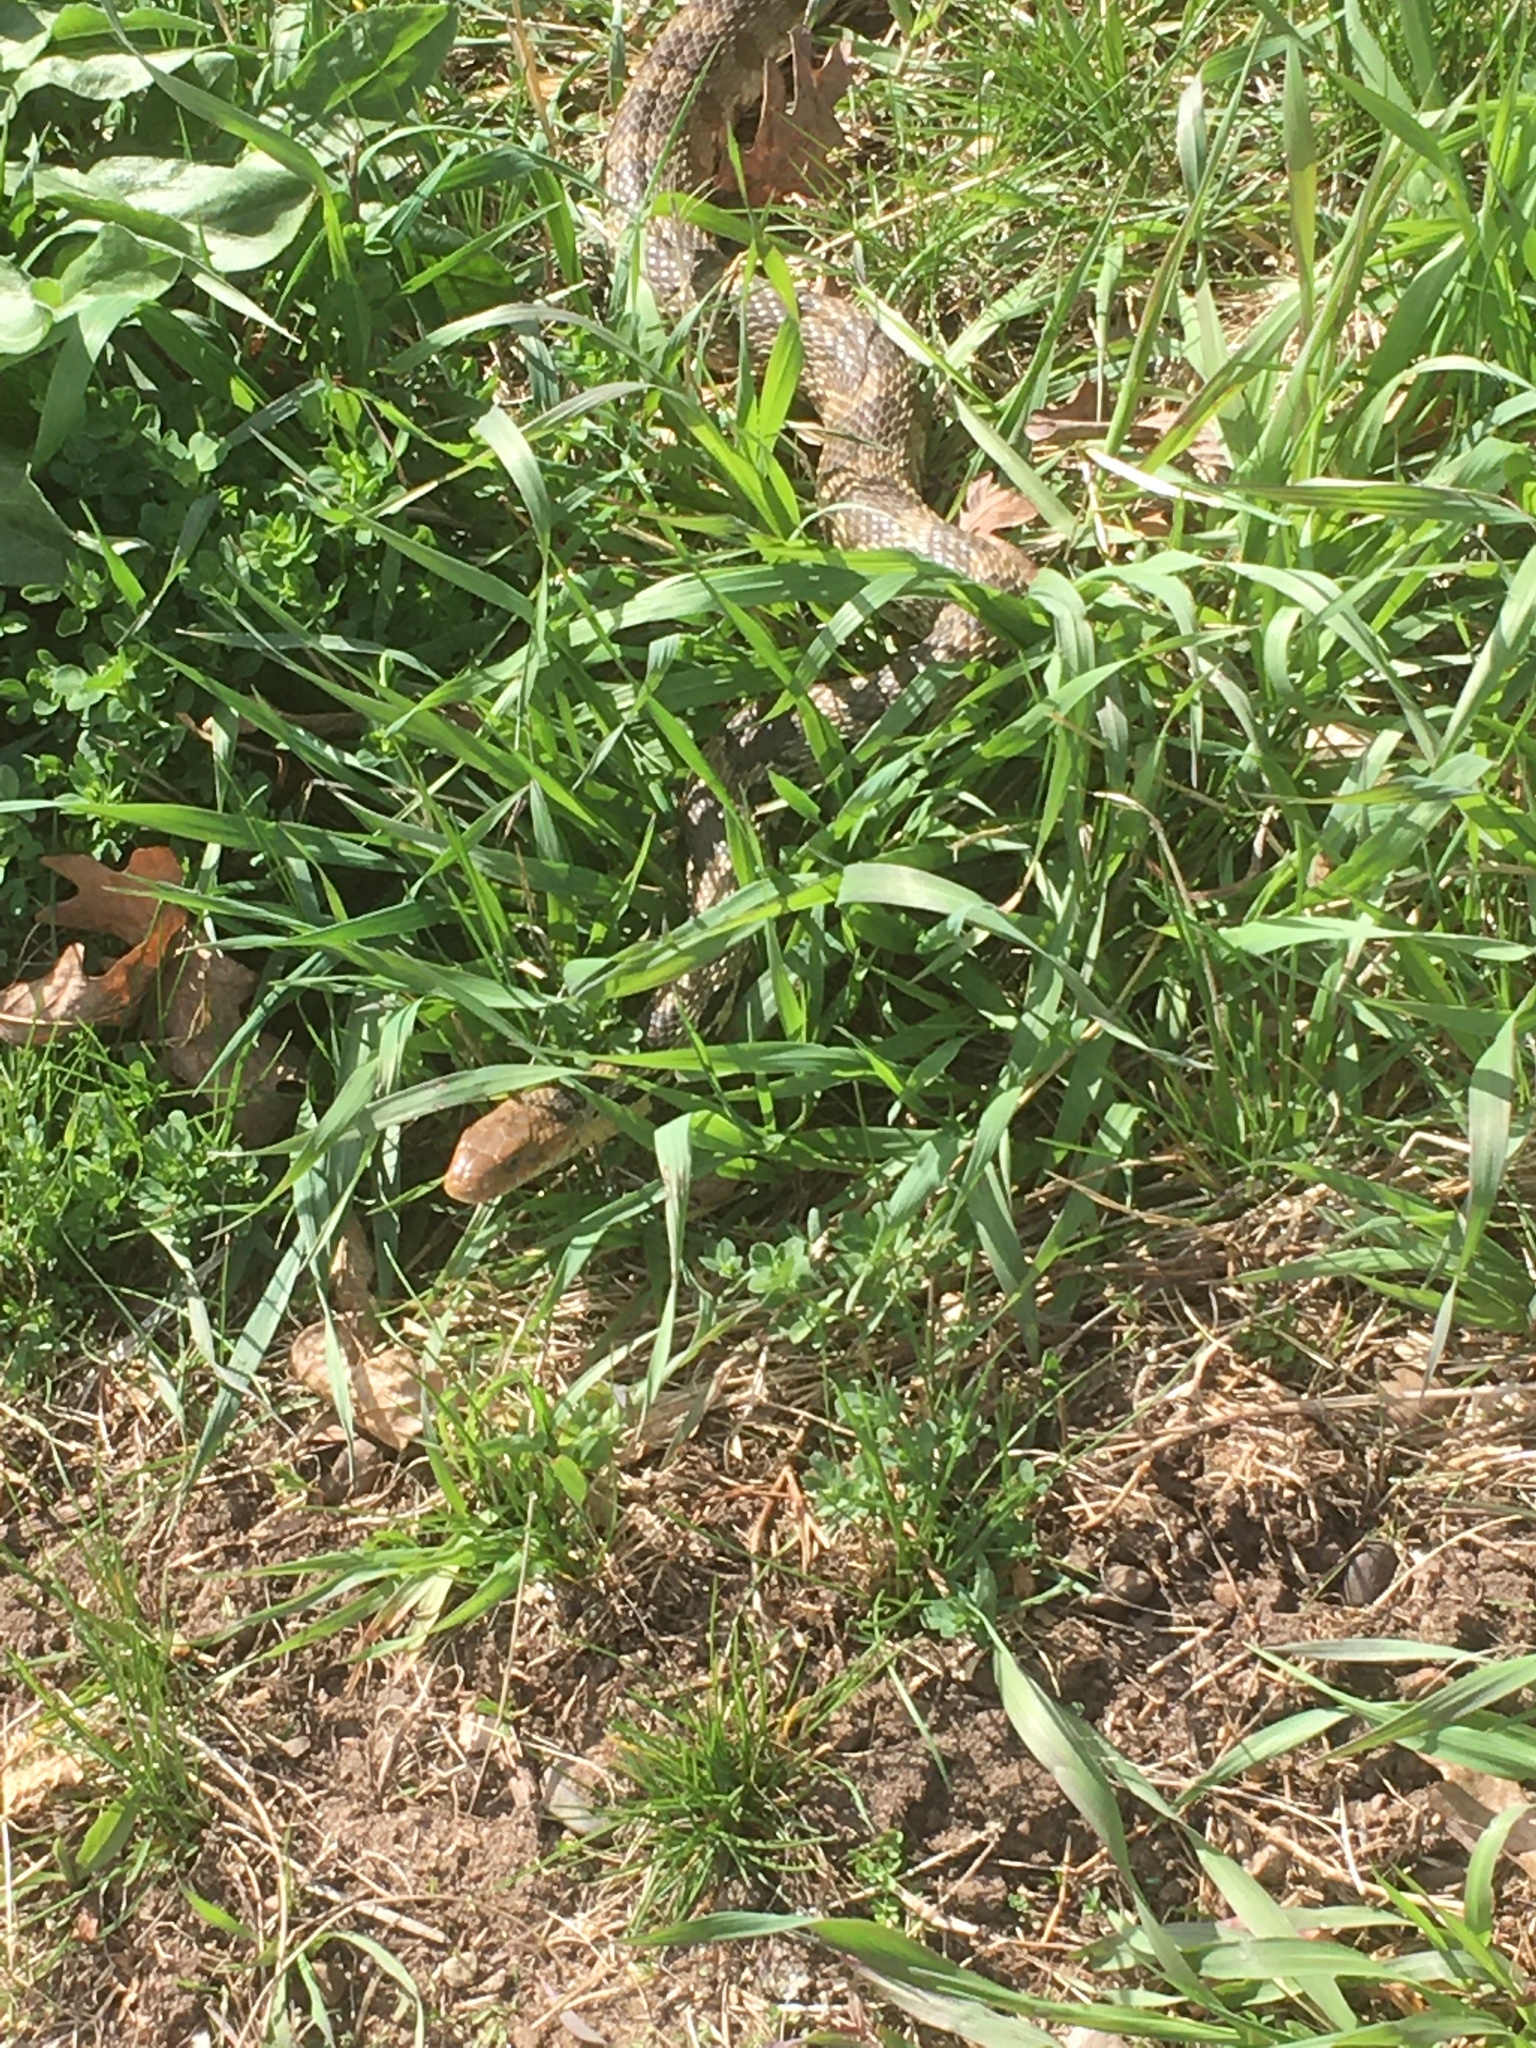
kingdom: Animalia
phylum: Chordata
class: Squamata
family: Colubridae
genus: Pantherophis
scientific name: Pantherophis ramspotti
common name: Western foxsnake
